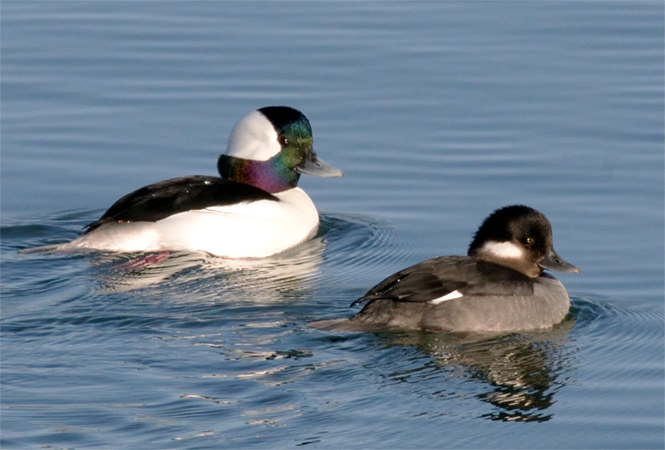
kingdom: Animalia
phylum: Chordata
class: Aves
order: Anseriformes
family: Anatidae
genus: Bucephala
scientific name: Bucephala albeola
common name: Bufflehead
